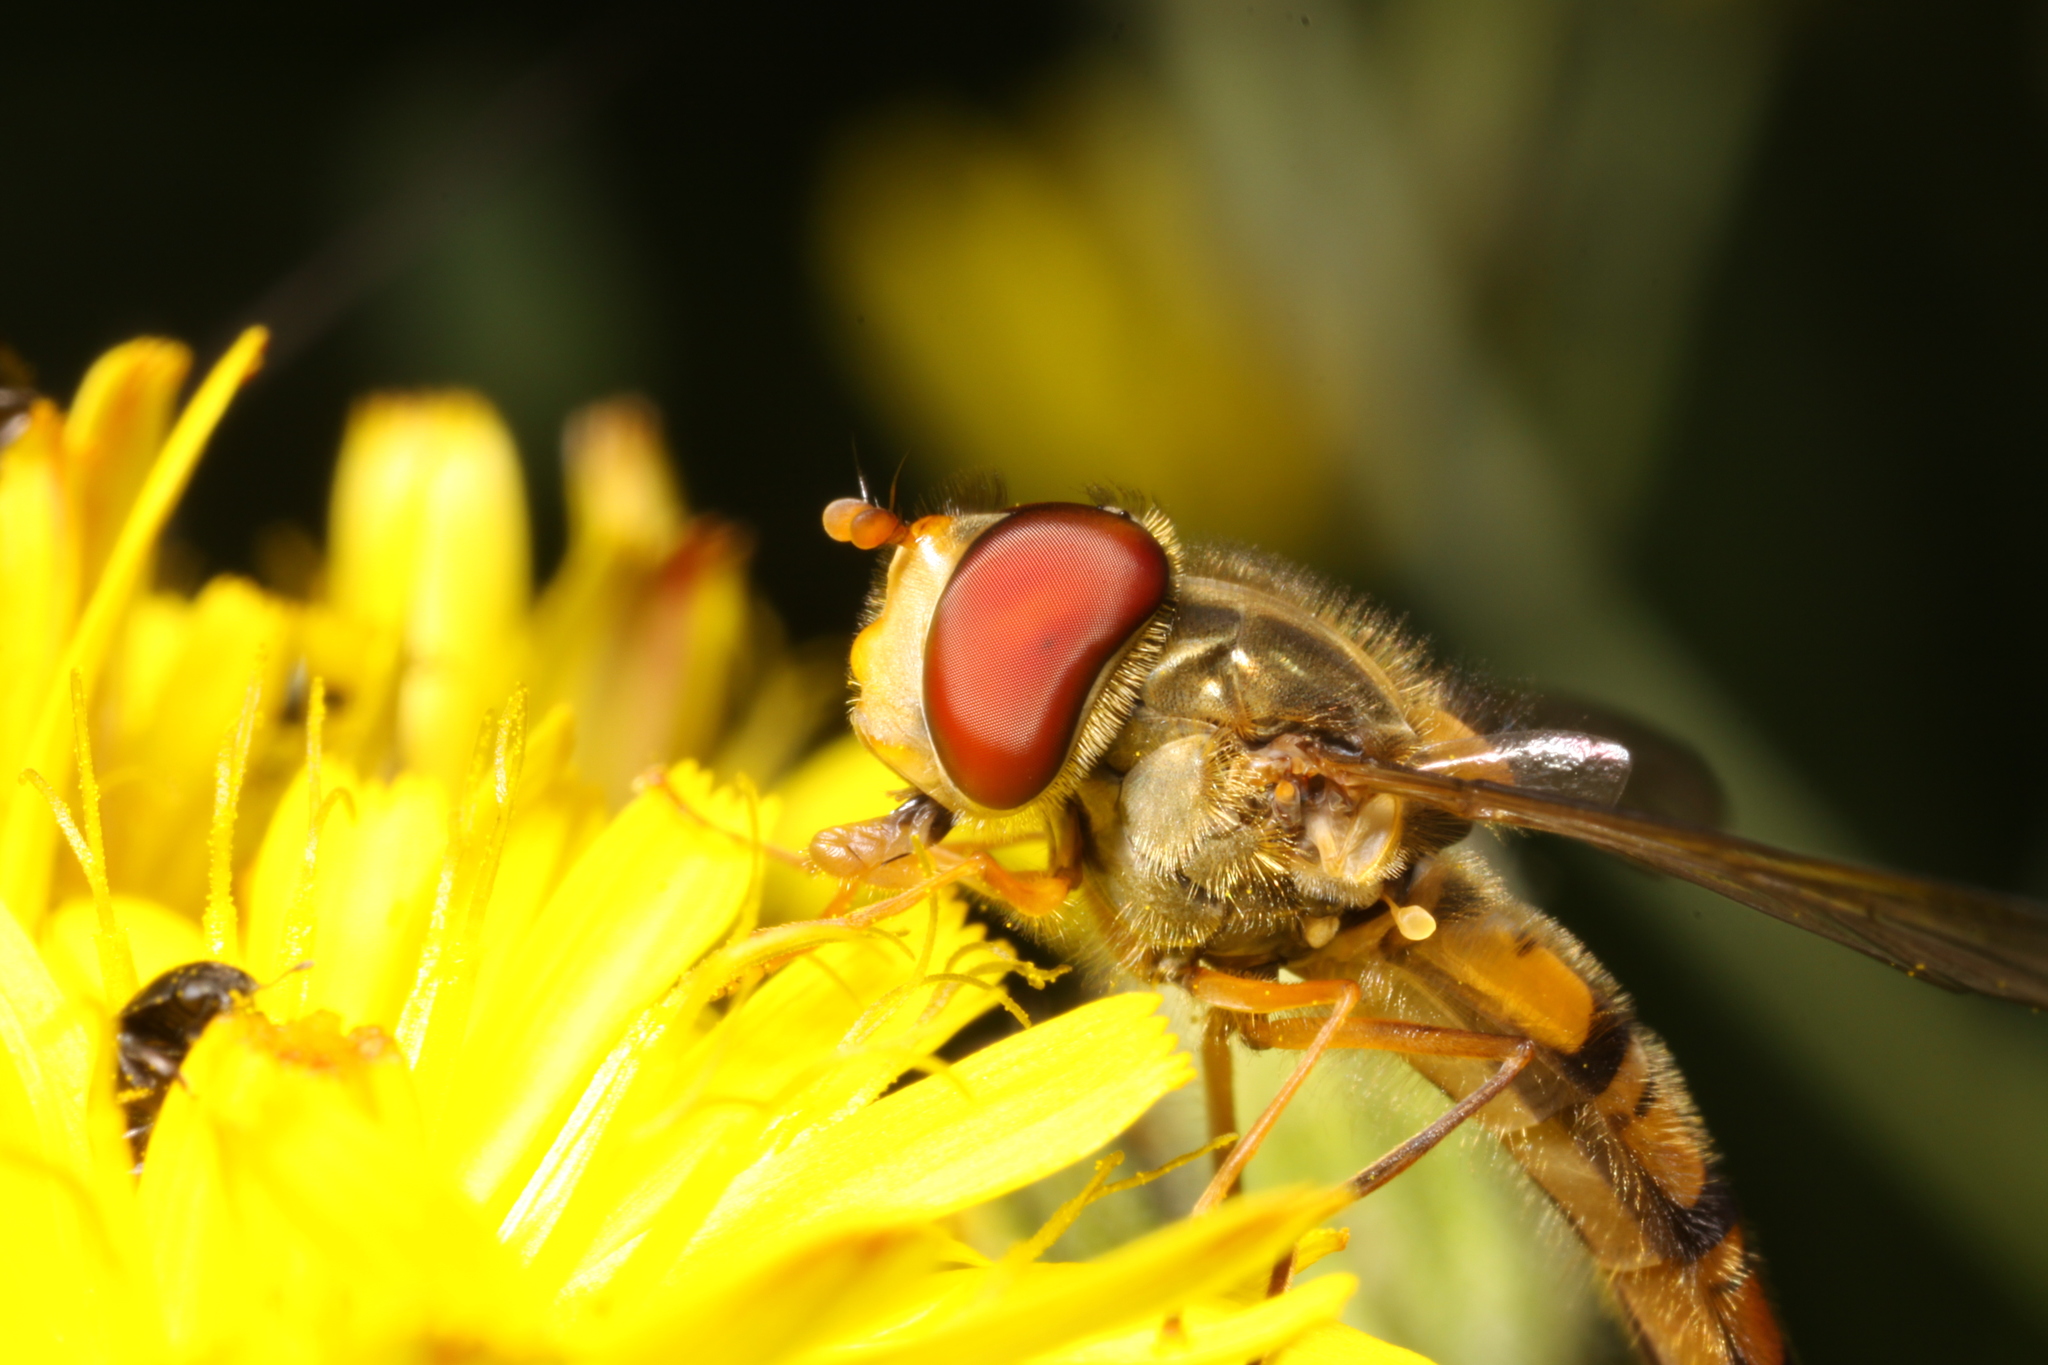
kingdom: Animalia
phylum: Arthropoda
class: Insecta
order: Diptera
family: Syrphidae
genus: Episyrphus
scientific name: Episyrphus balteatus
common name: Marmalade hoverfly
